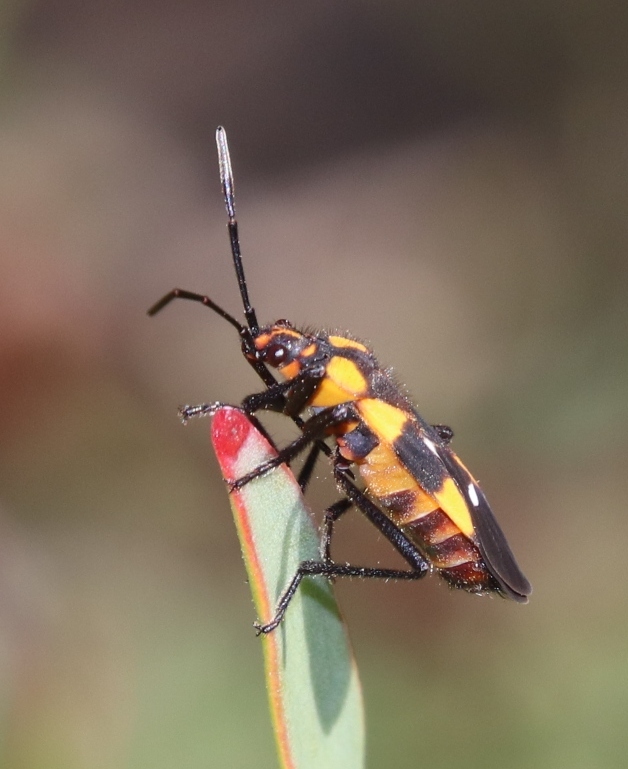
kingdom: Animalia
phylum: Arthropoda
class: Insecta
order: Hemiptera
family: Lygaeidae
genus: Oncopeltus
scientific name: Oncopeltus famelicus
